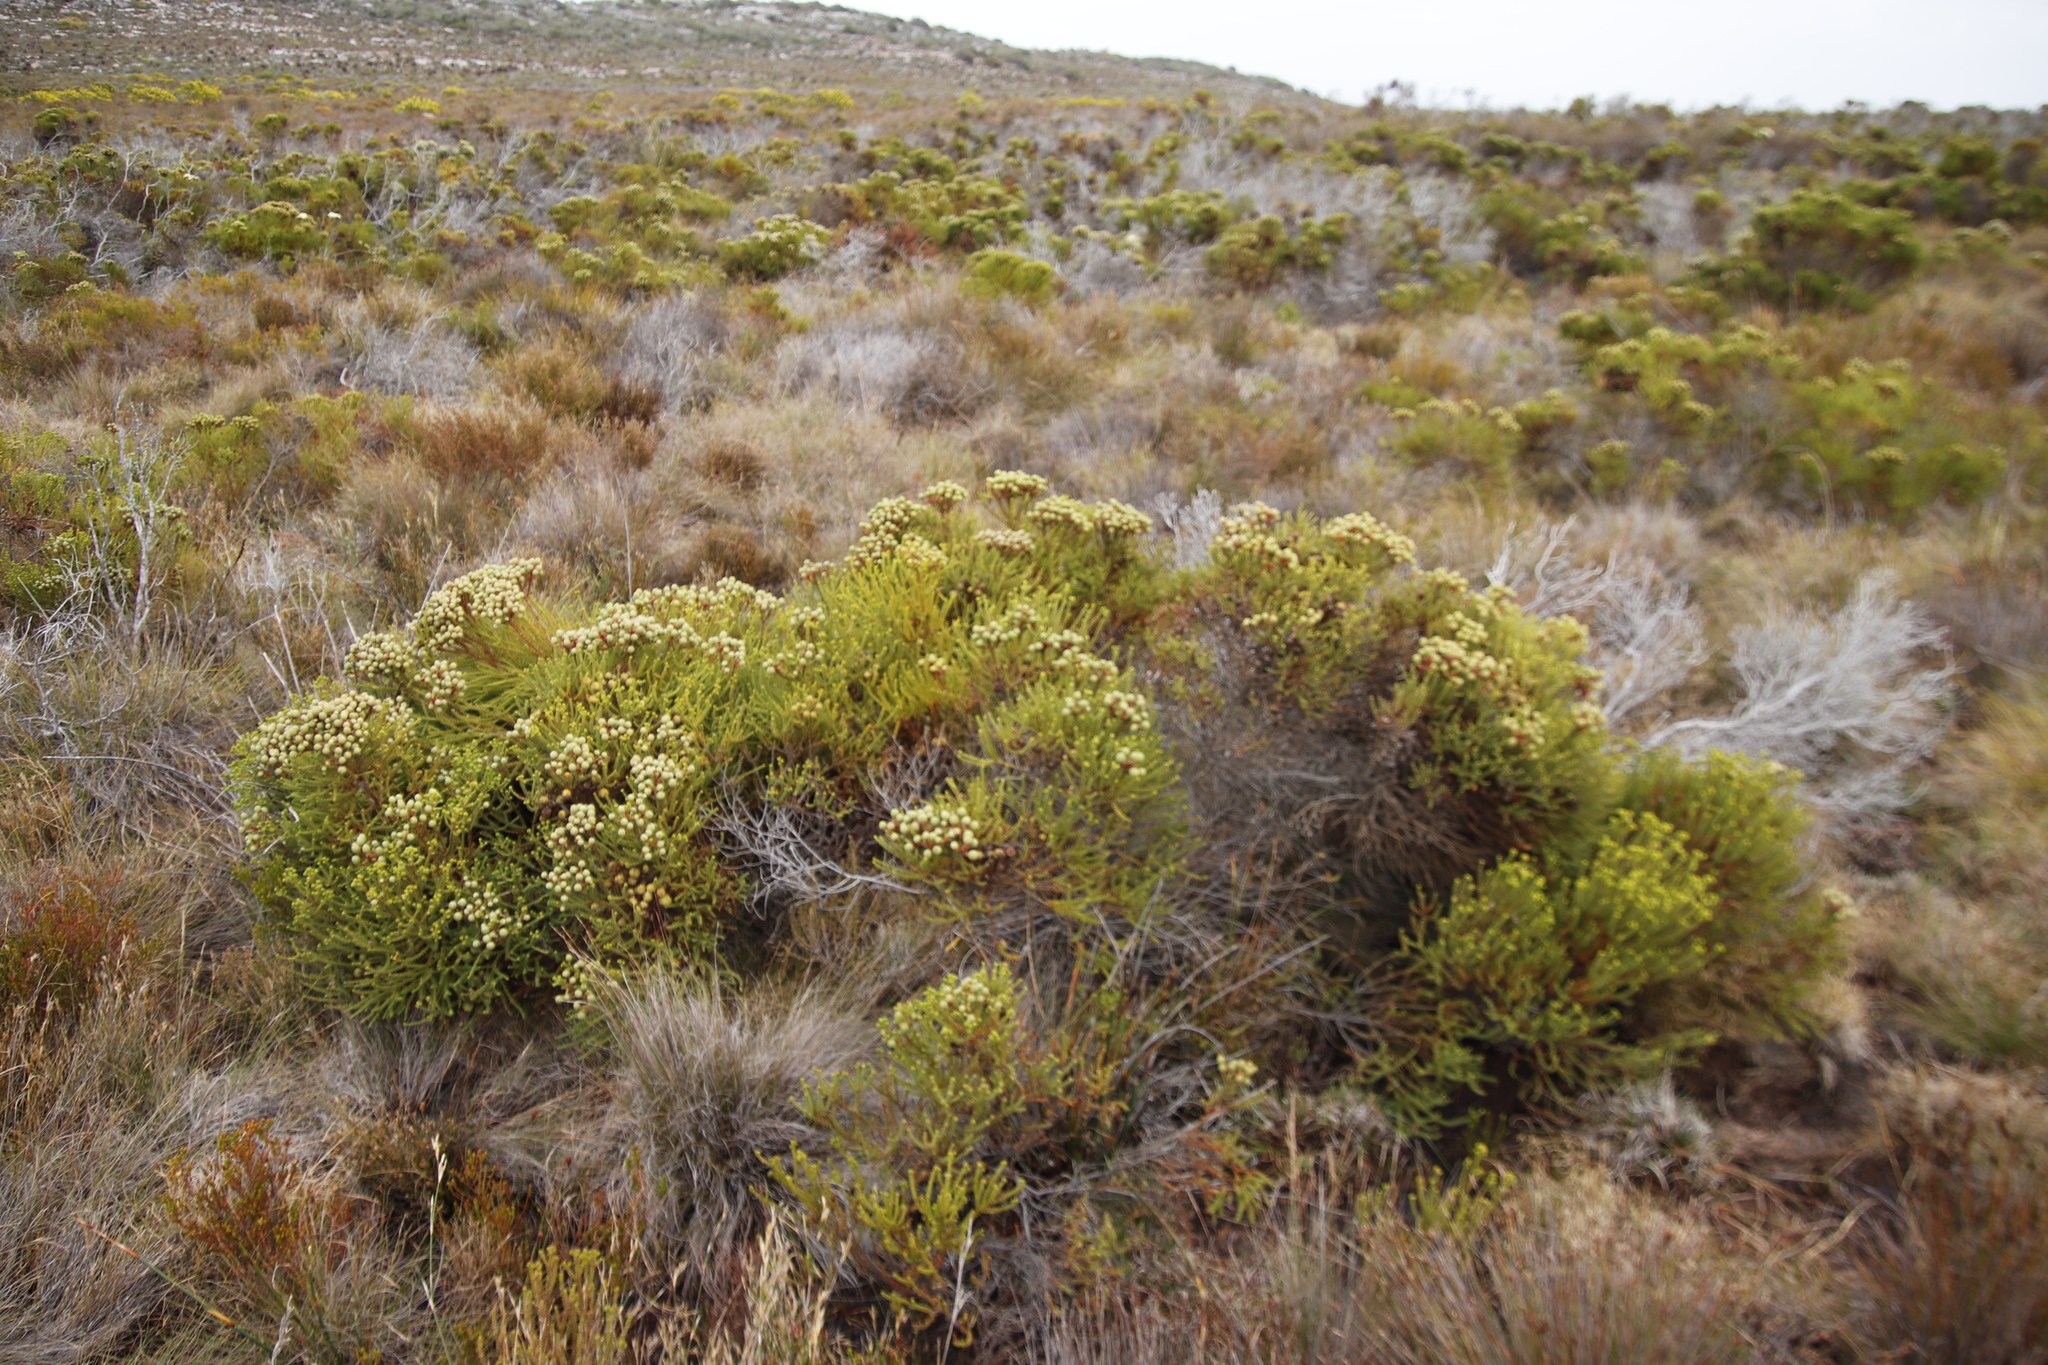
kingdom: Plantae
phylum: Tracheophyta
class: Magnoliopsida
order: Bruniales
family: Bruniaceae
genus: Berzelia
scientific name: Berzelia abrotanoides
